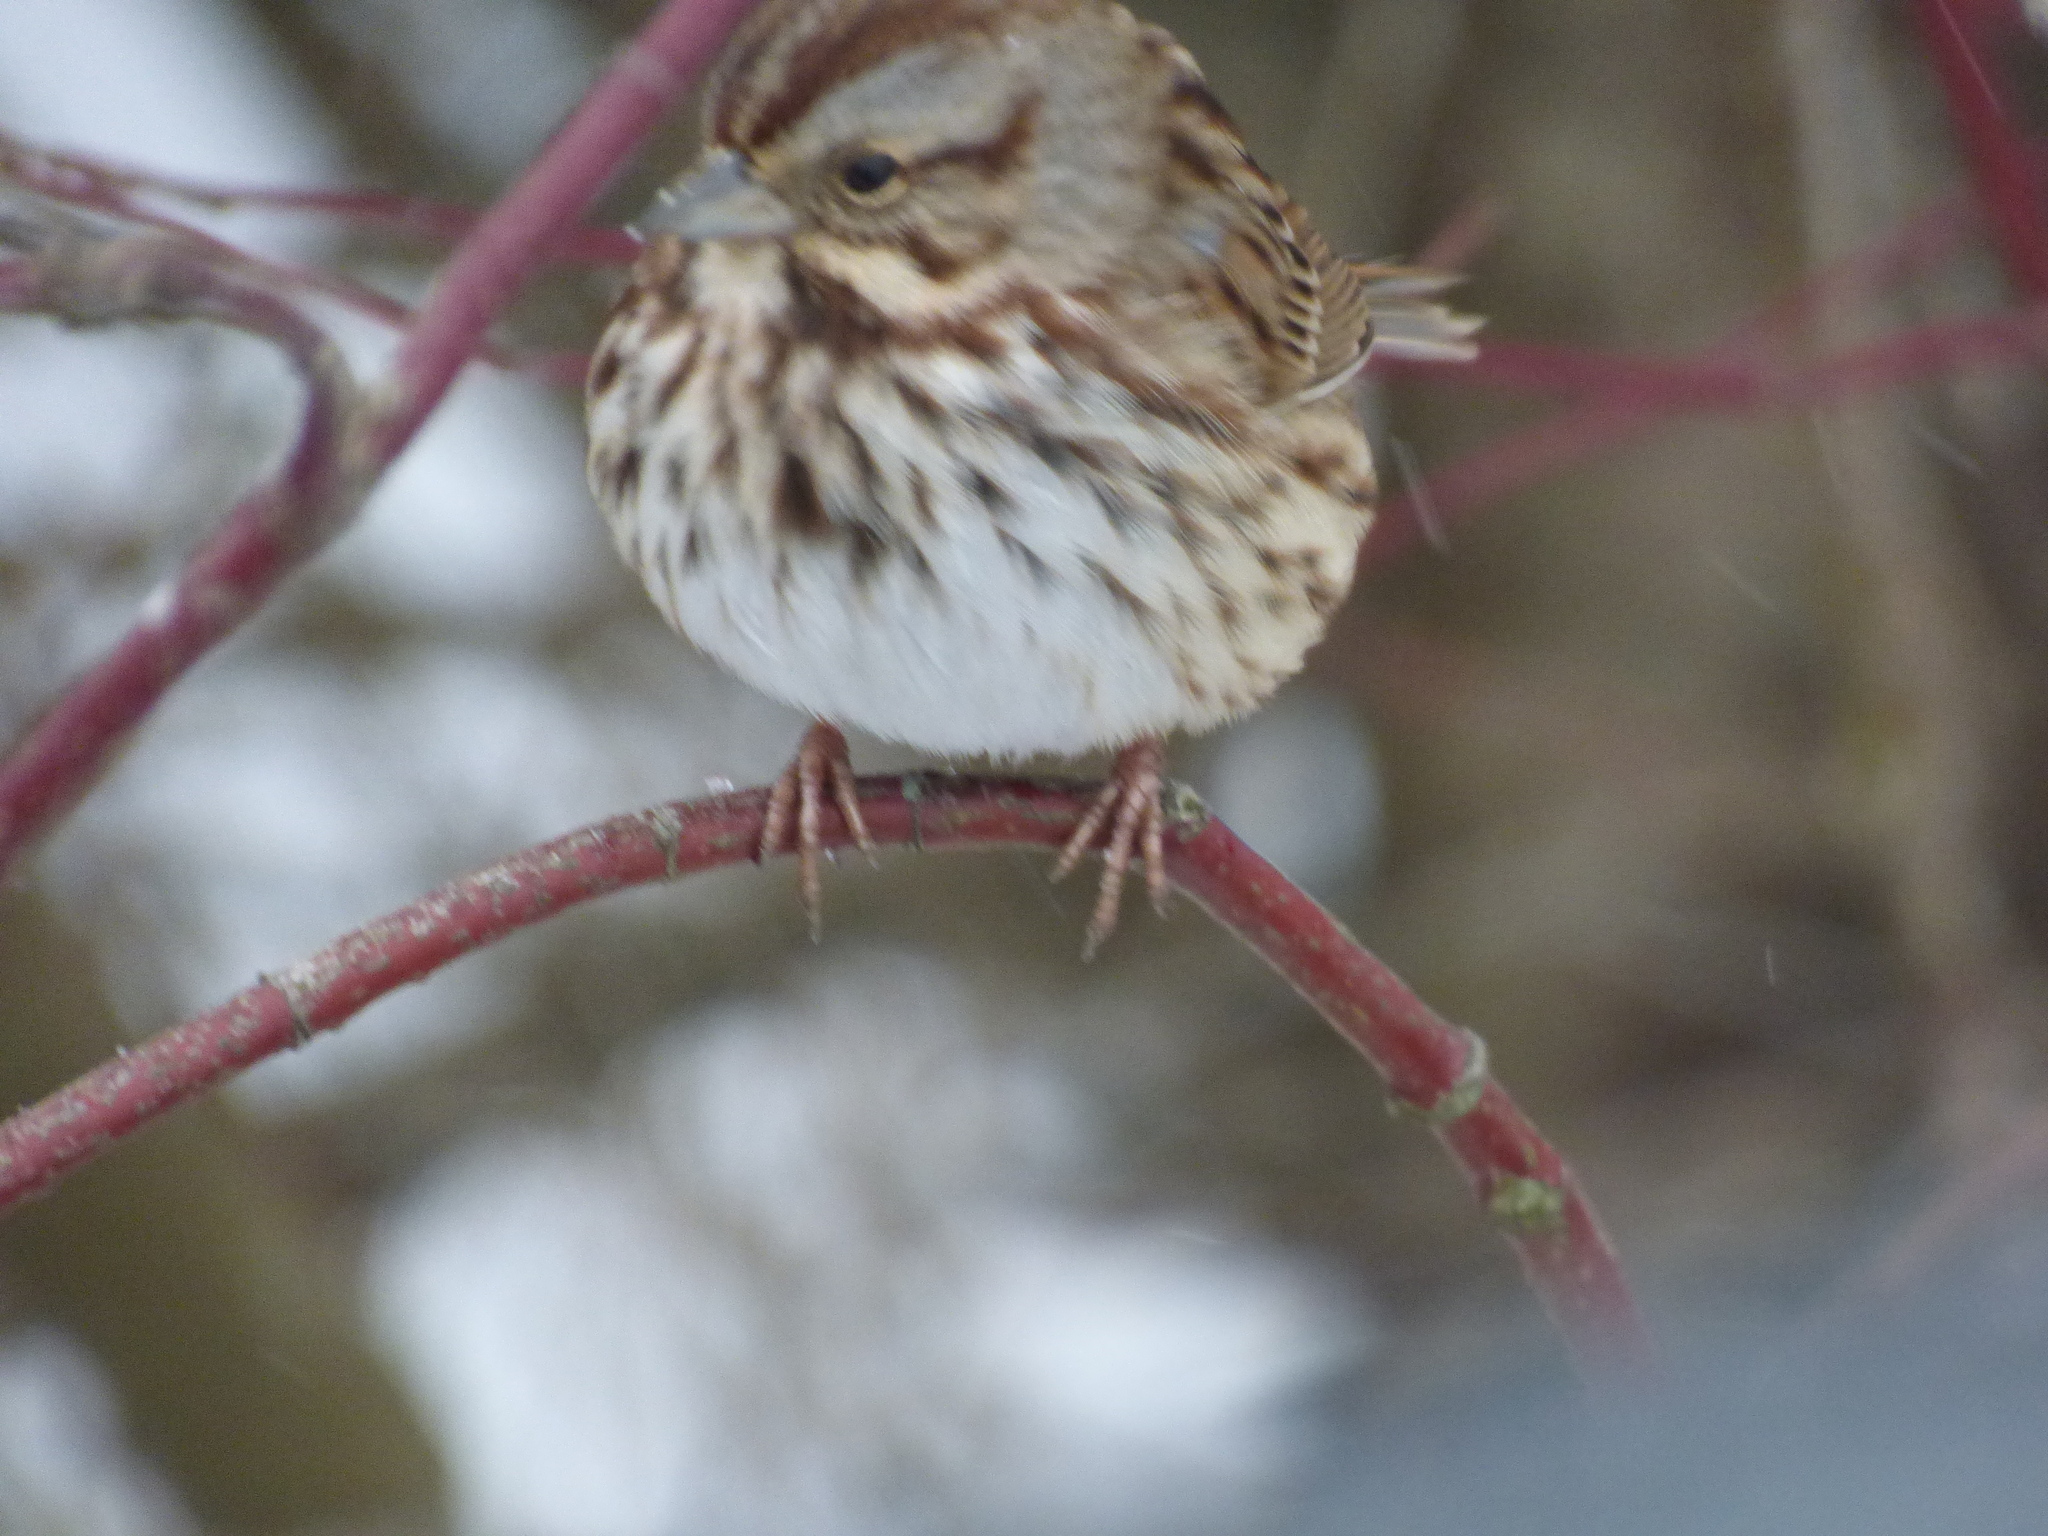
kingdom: Animalia
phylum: Chordata
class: Aves
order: Passeriformes
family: Passerellidae
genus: Melospiza
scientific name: Melospiza melodia
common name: Song sparrow
